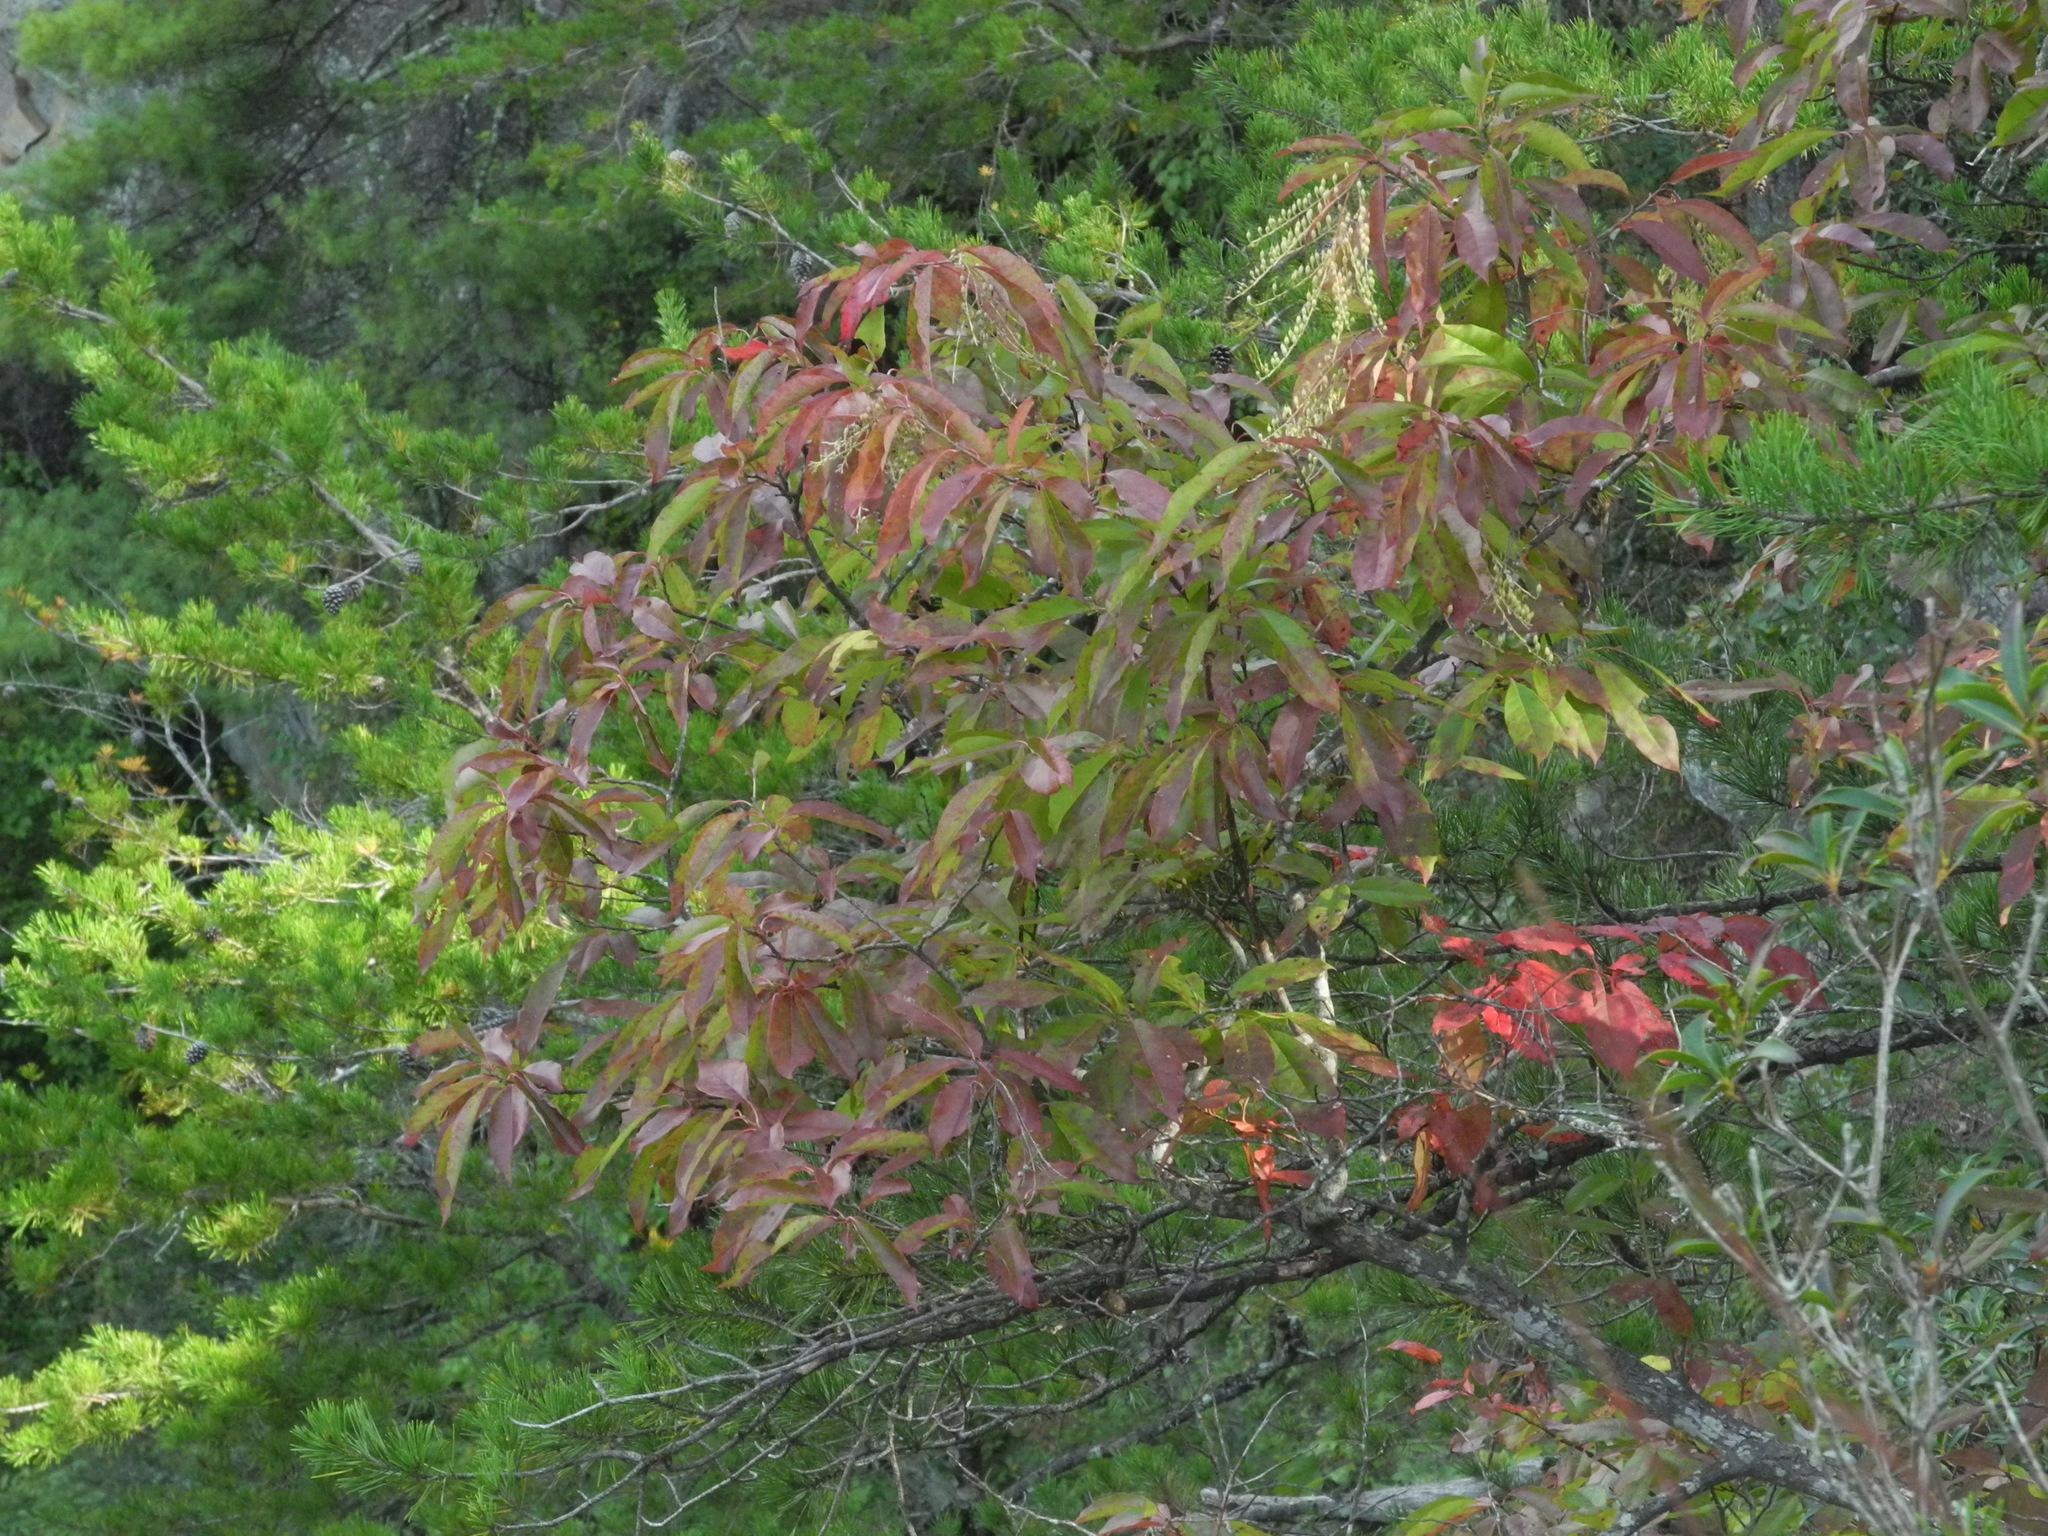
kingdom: Plantae
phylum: Tracheophyta
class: Magnoliopsida
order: Ericales
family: Ericaceae
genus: Oxydendrum
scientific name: Oxydendrum arboreum
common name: Sourwood
